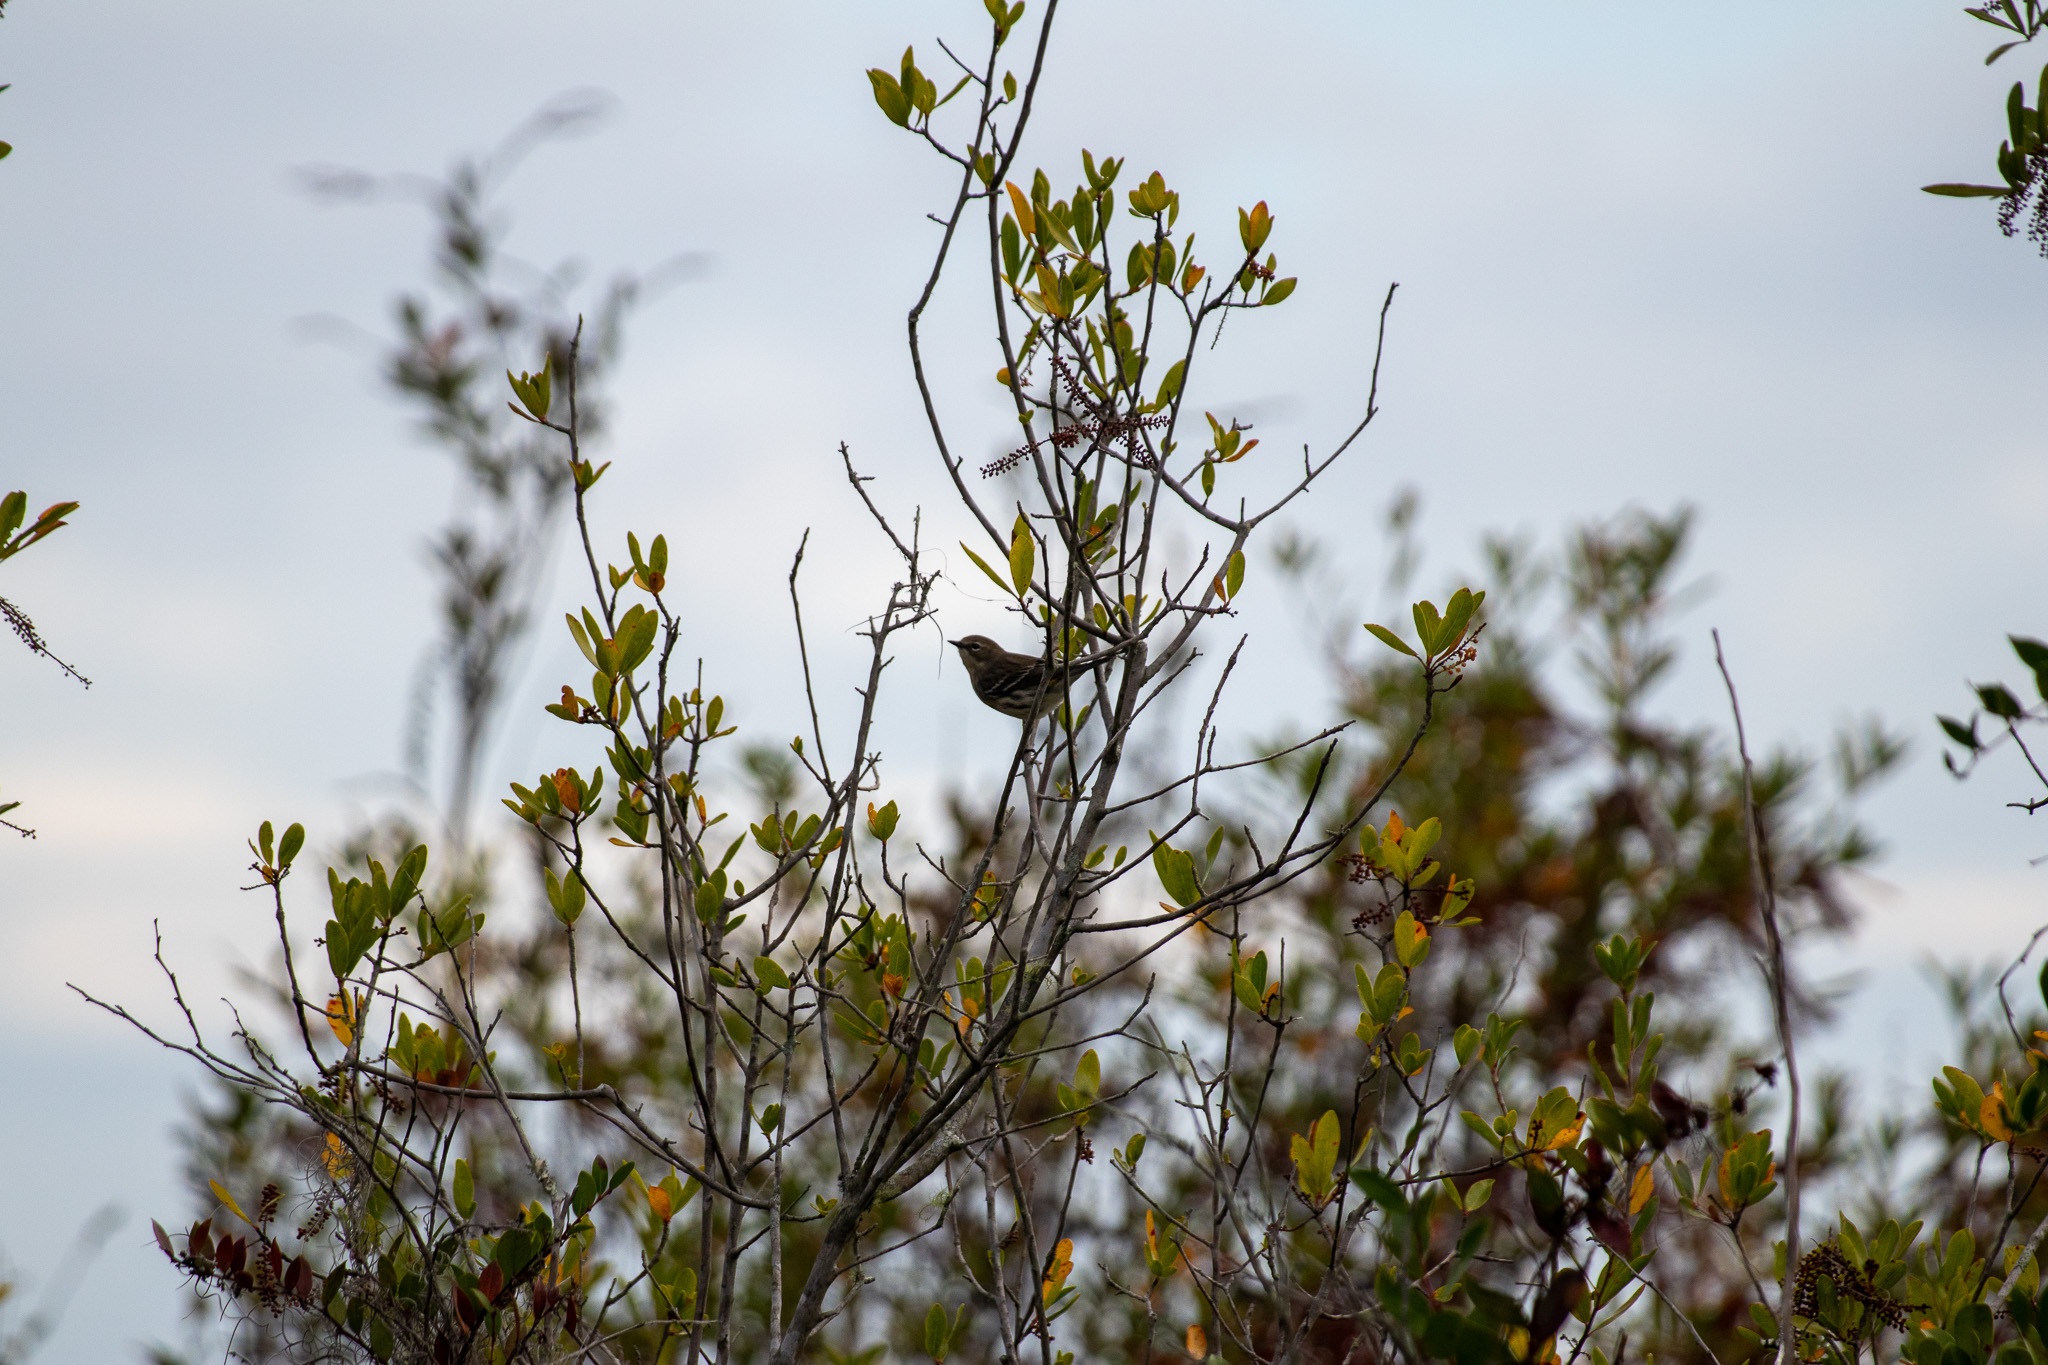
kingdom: Animalia
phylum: Chordata
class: Aves
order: Passeriformes
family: Parulidae
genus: Setophaga
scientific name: Setophaga coronata
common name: Myrtle warbler
